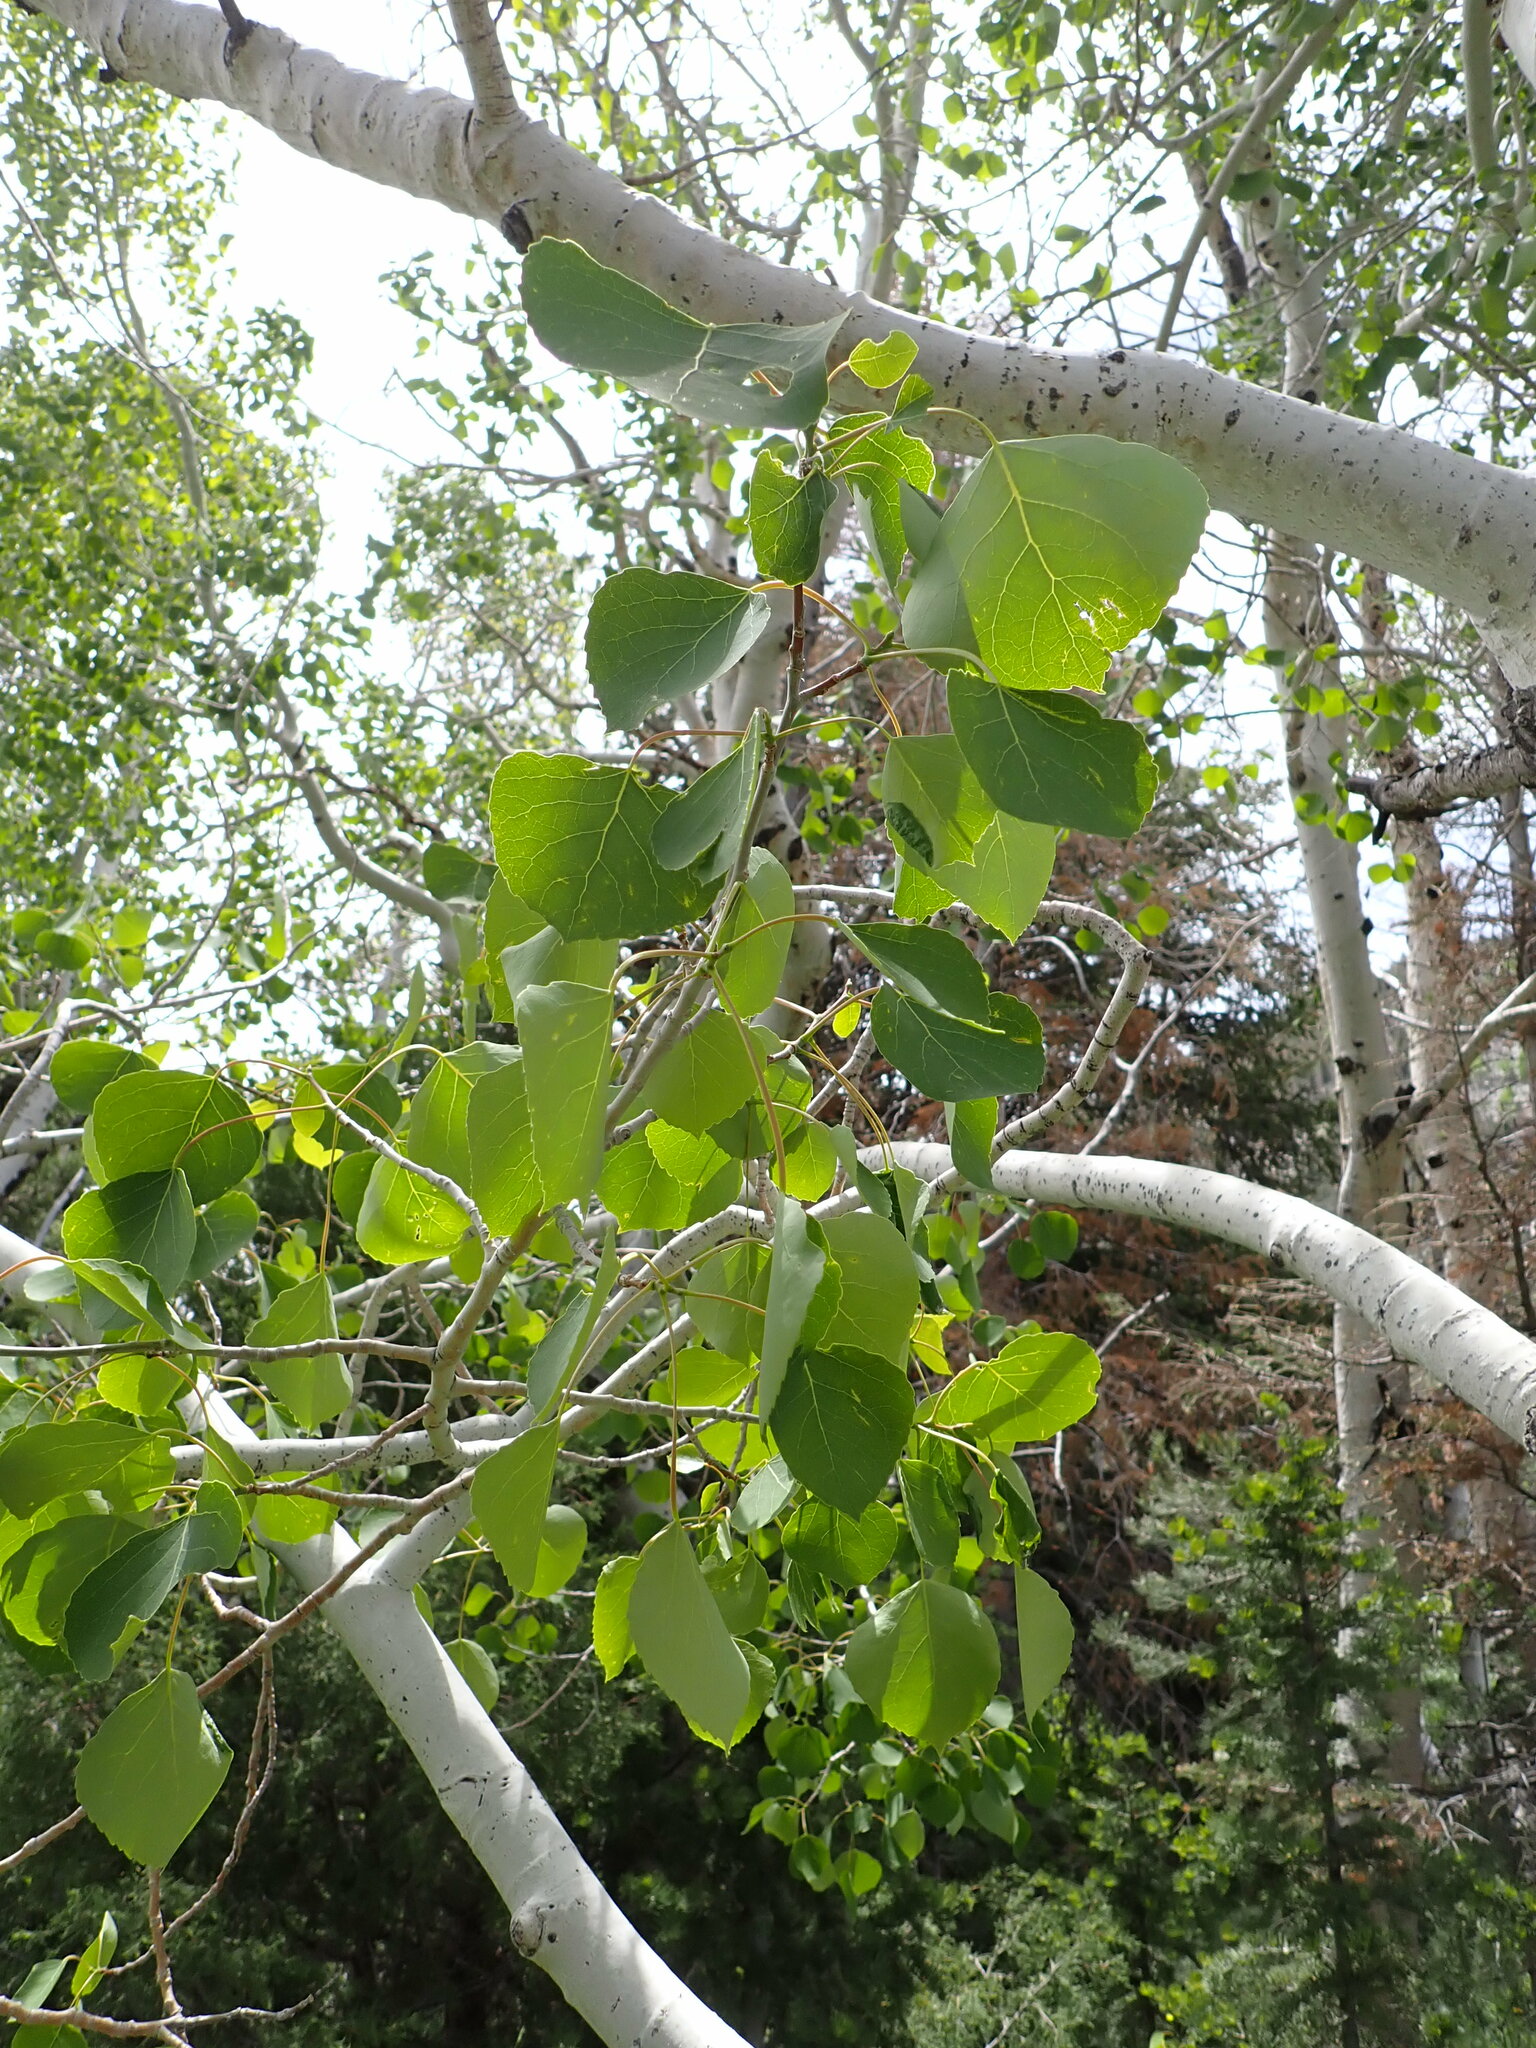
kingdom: Plantae
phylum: Tracheophyta
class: Magnoliopsida
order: Malpighiales
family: Salicaceae
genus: Populus
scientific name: Populus tremuloides
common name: Quaking aspen
